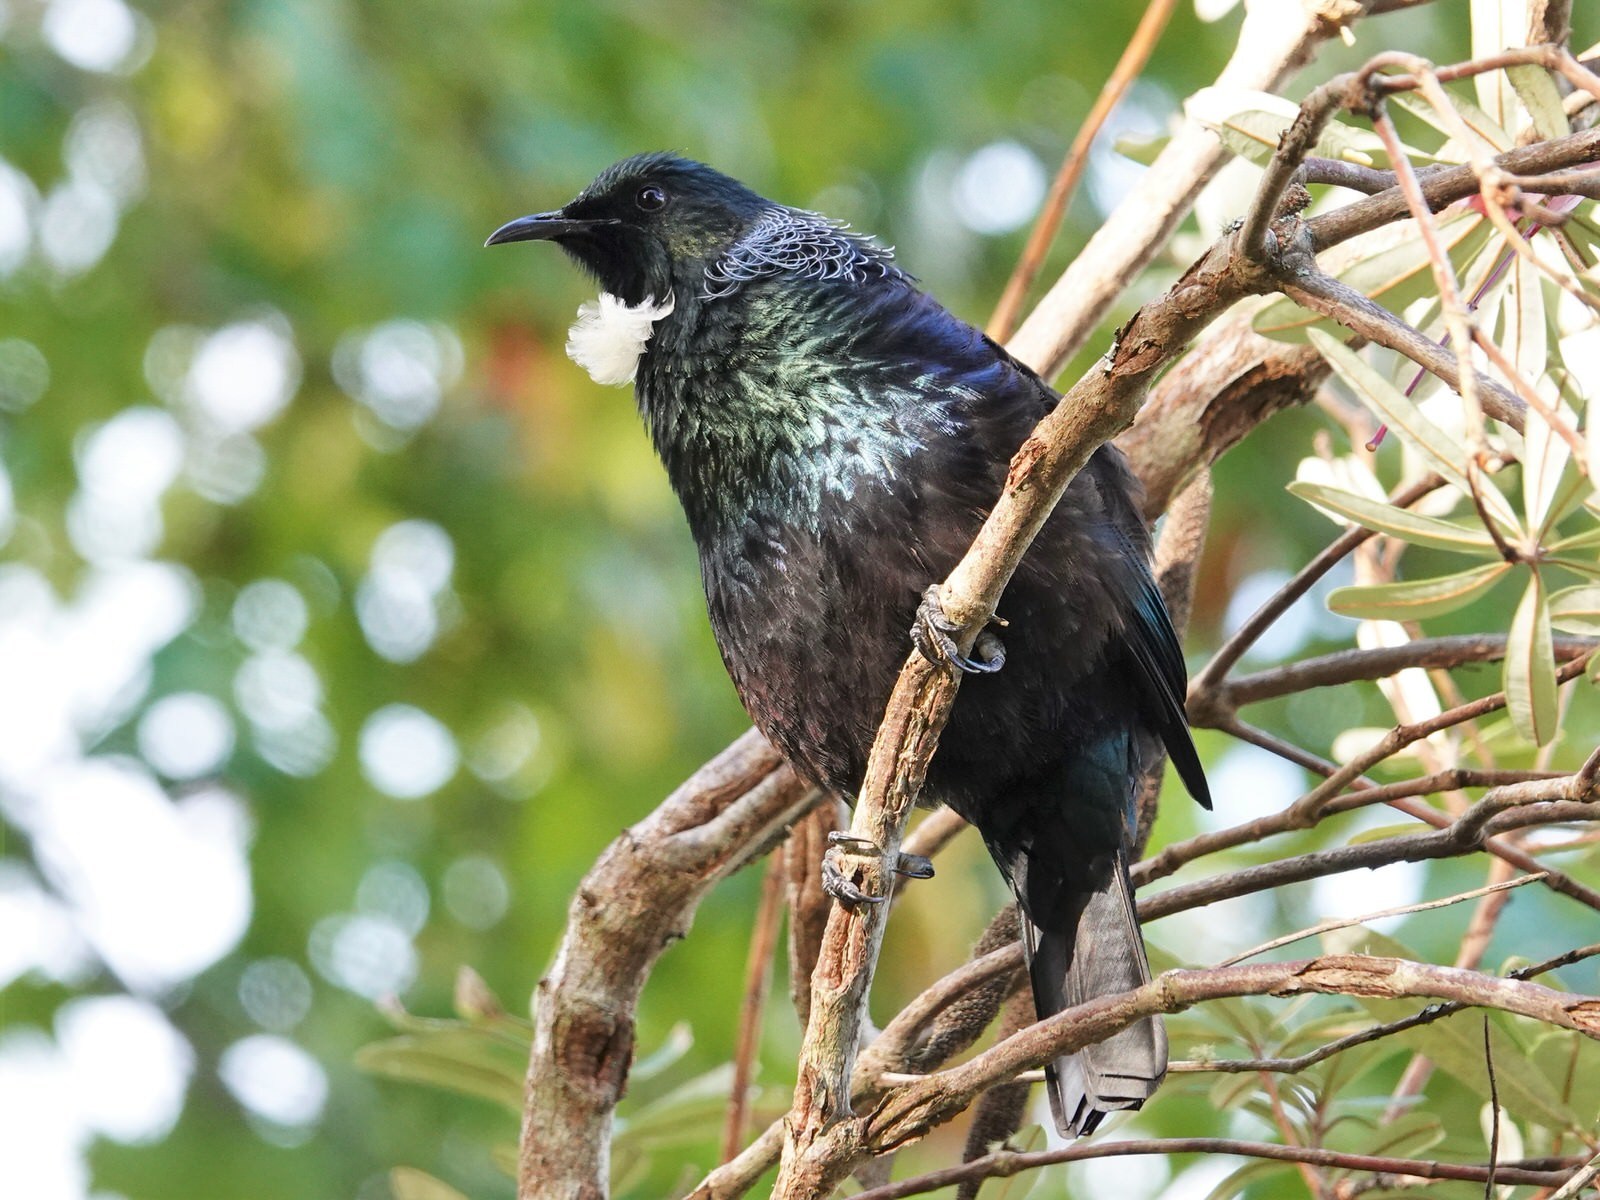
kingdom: Animalia
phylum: Chordata
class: Aves
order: Passeriformes
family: Meliphagidae
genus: Prosthemadera
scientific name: Prosthemadera novaeseelandiae
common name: Tui
